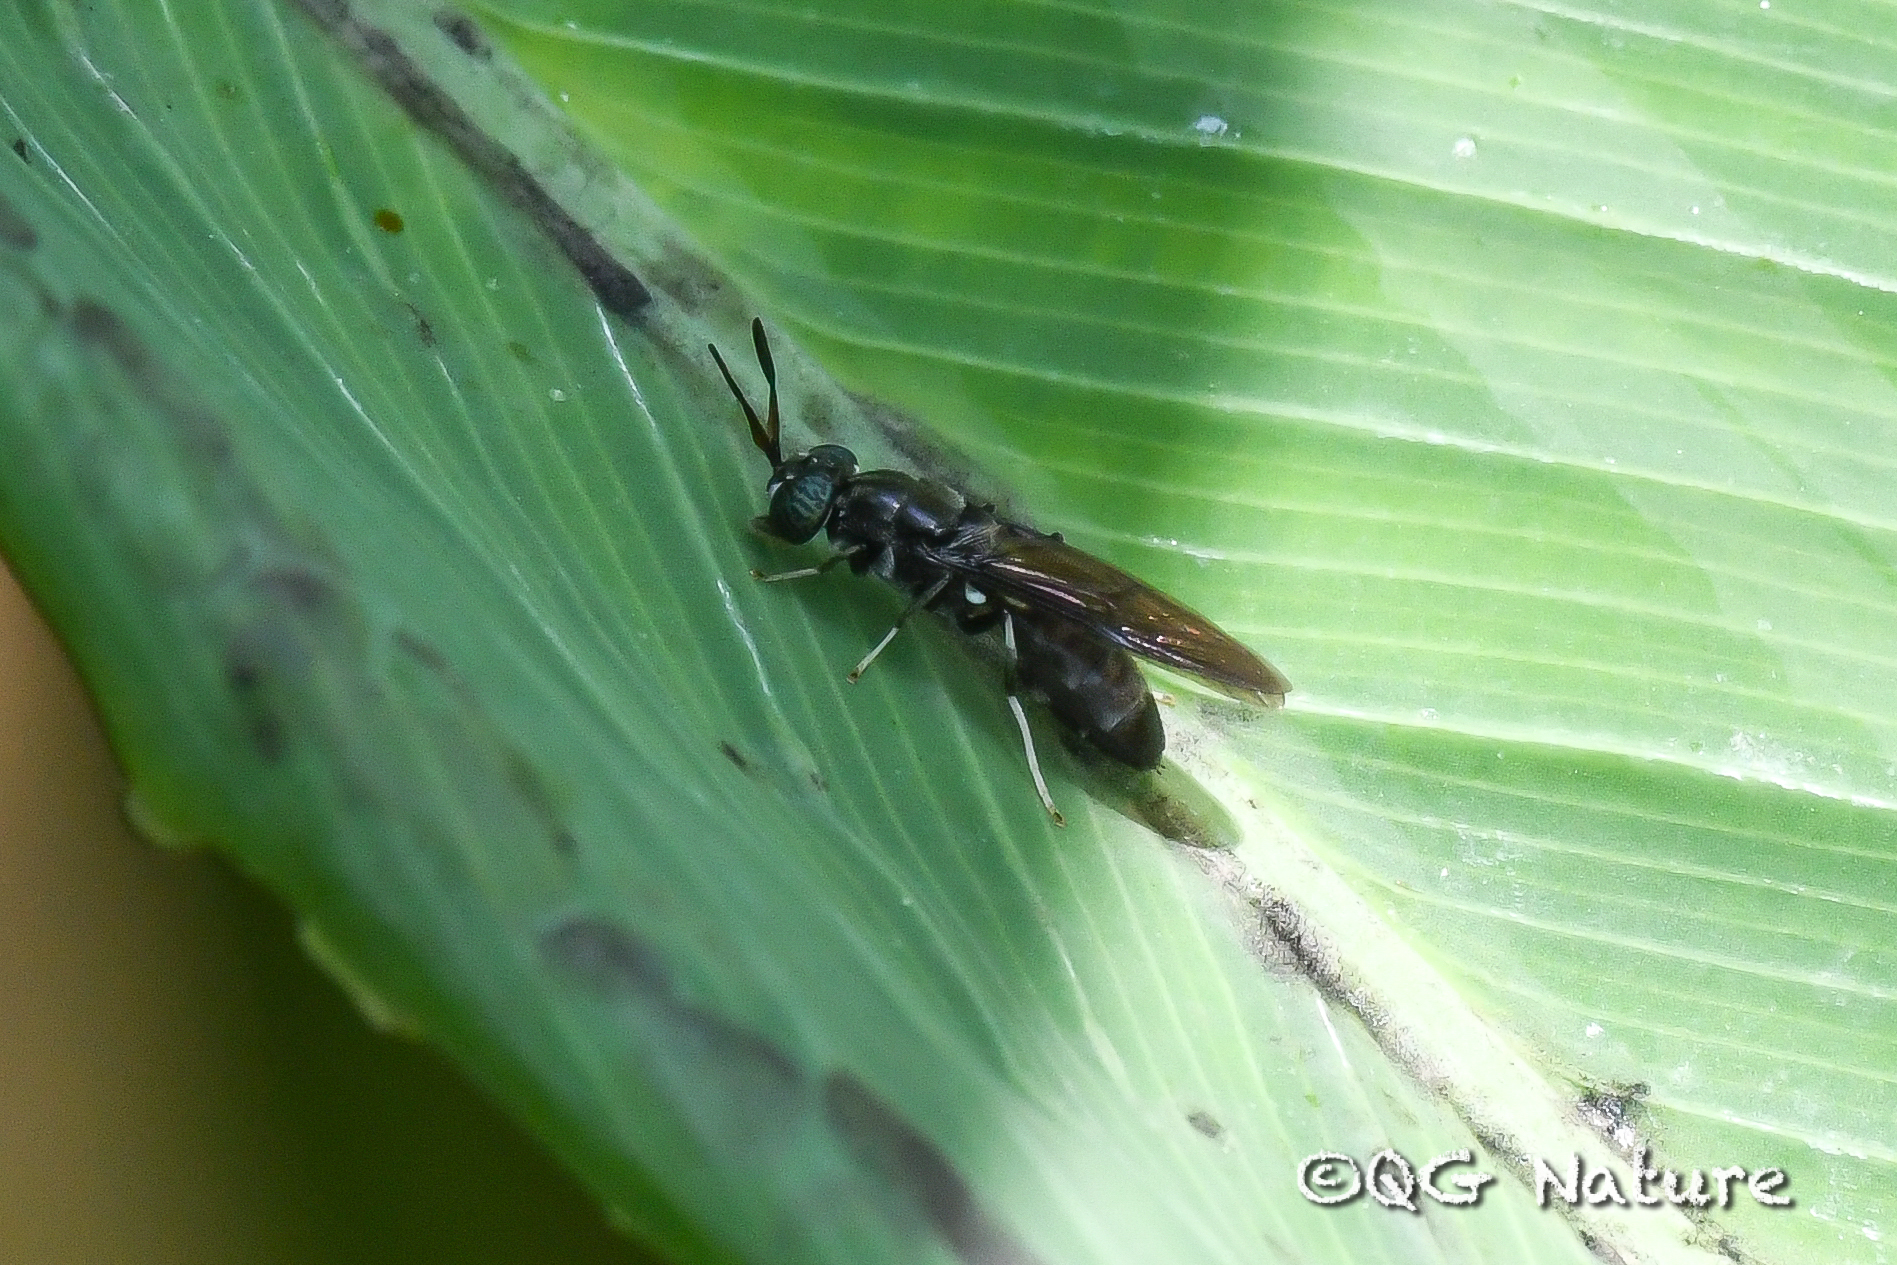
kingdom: Animalia
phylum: Arthropoda
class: Insecta
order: Diptera
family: Stratiomyidae
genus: Hermetia
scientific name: Hermetia illucens
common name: Black soldier fly
